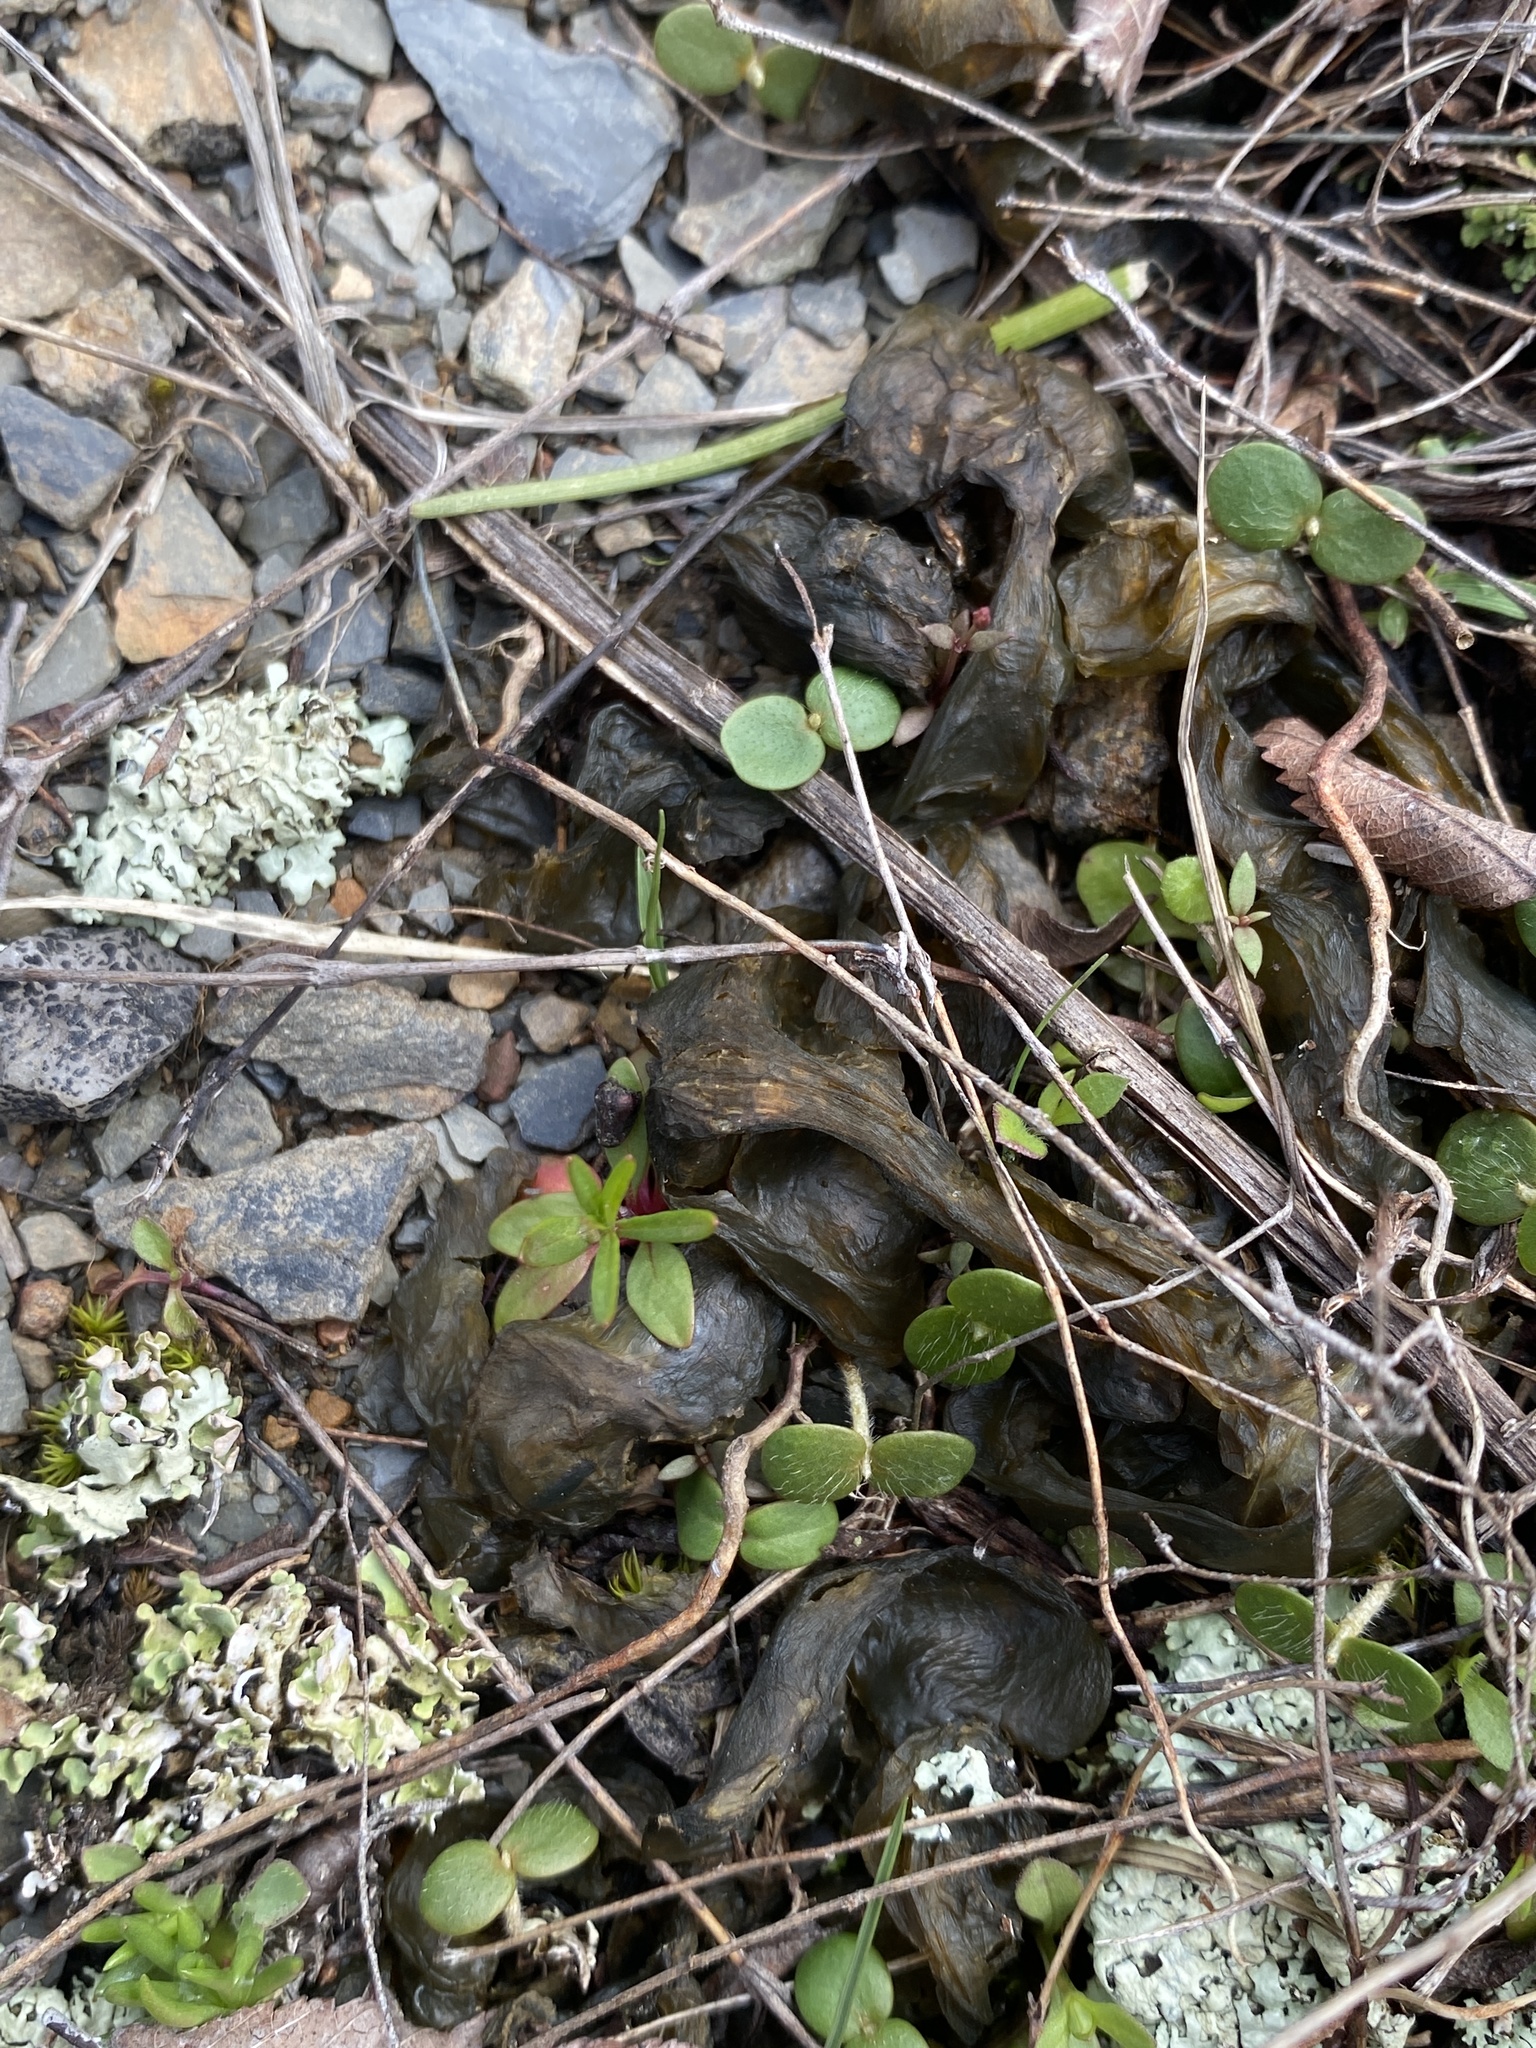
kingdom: Bacteria
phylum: Cyanobacteria
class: Cyanobacteriia
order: Cyanobacteriales
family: Nostocaceae
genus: Nostoc
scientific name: Nostoc commune
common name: Star jelly
